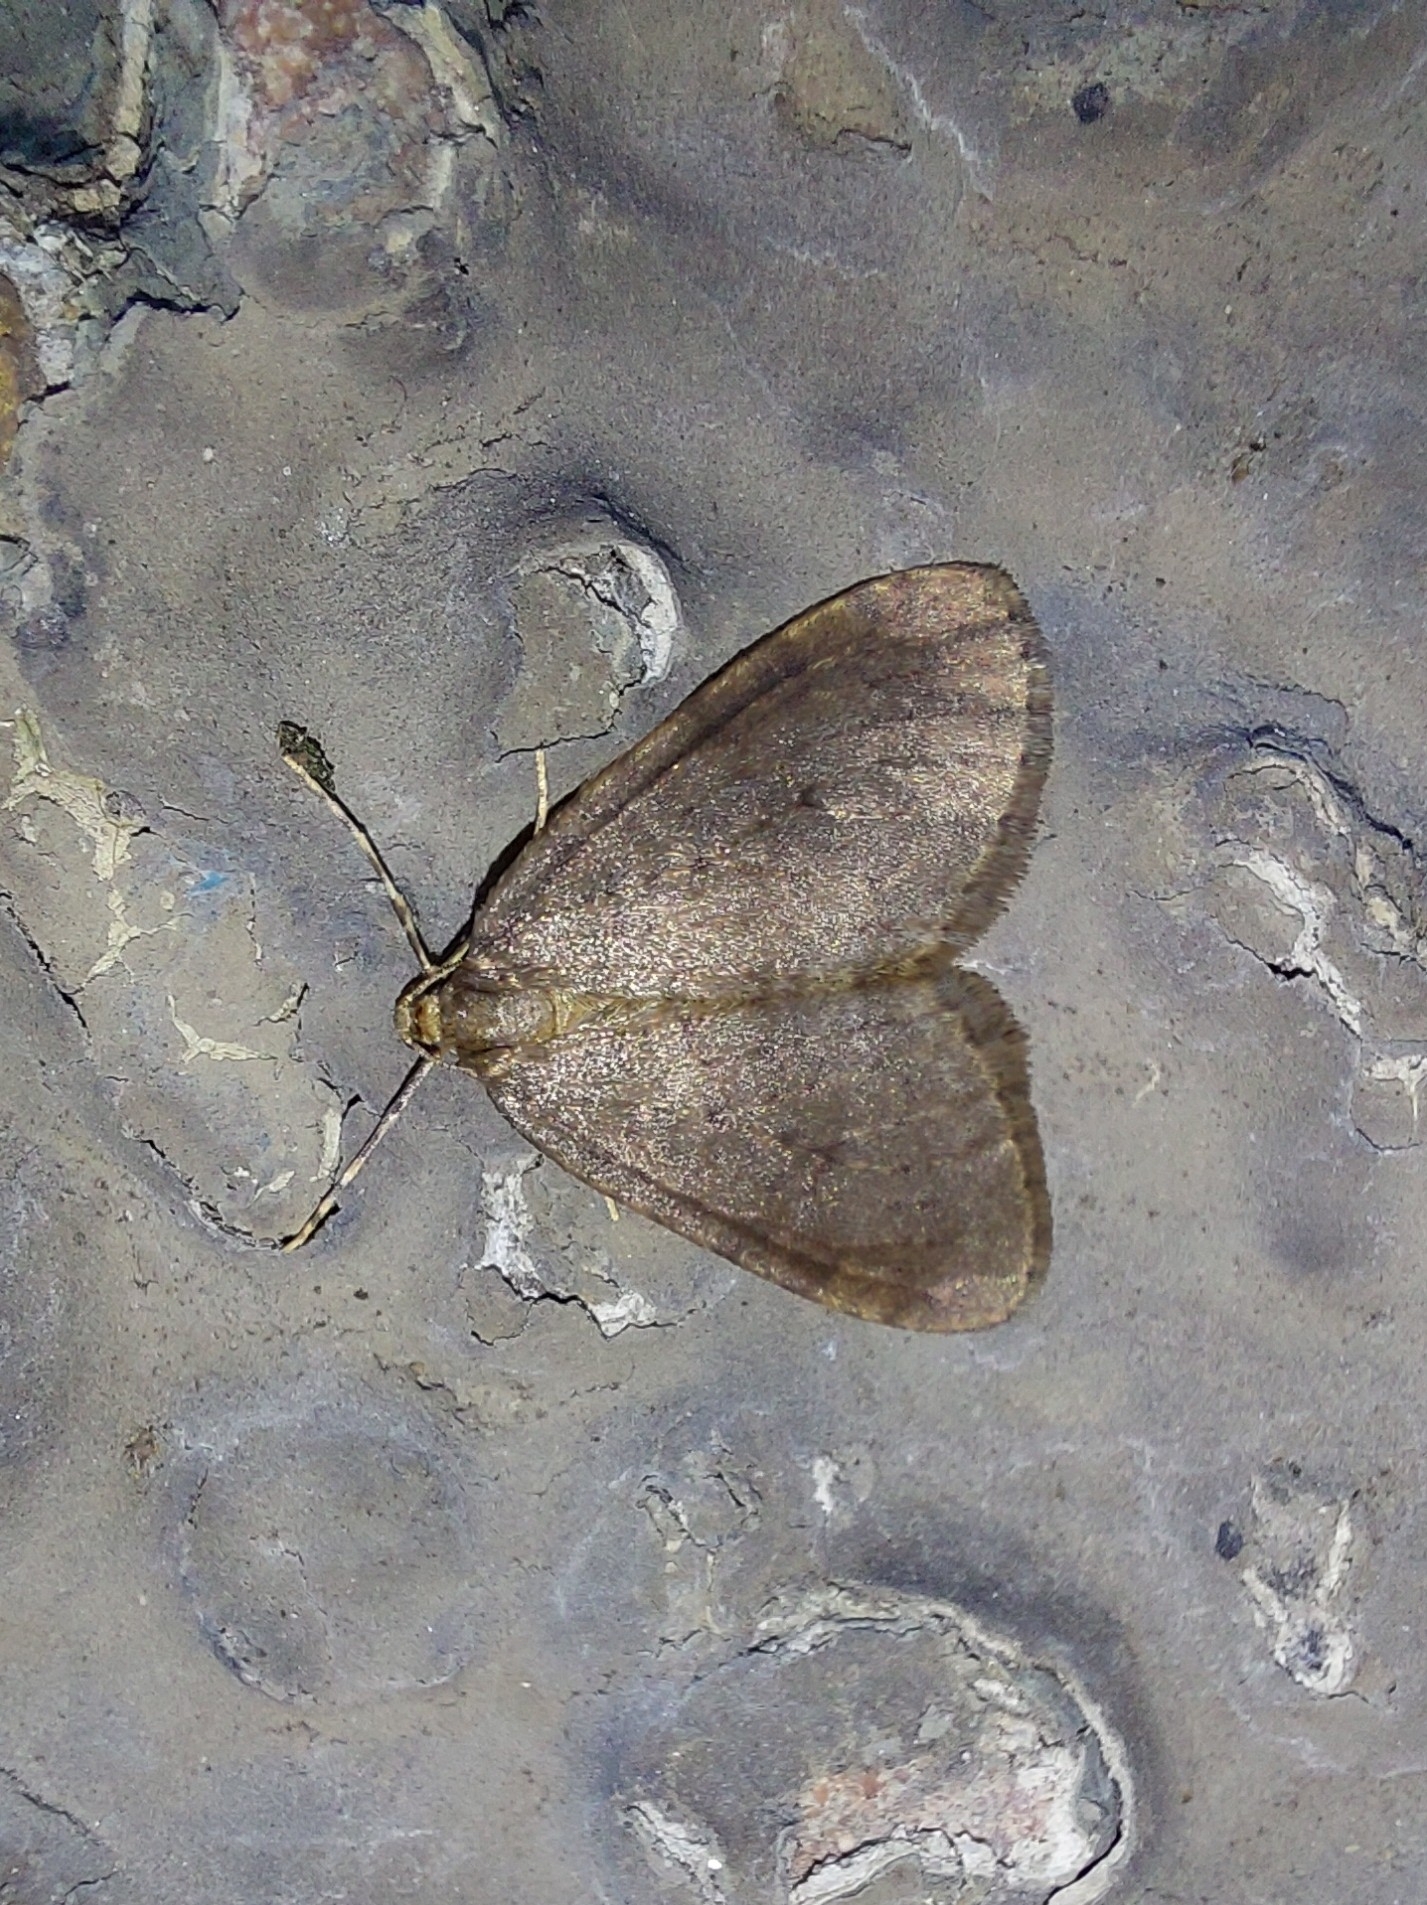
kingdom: Animalia
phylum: Arthropoda
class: Insecta
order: Lepidoptera
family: Geometridae
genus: Operophtera
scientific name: Operophtera brumata
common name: Winter moth
